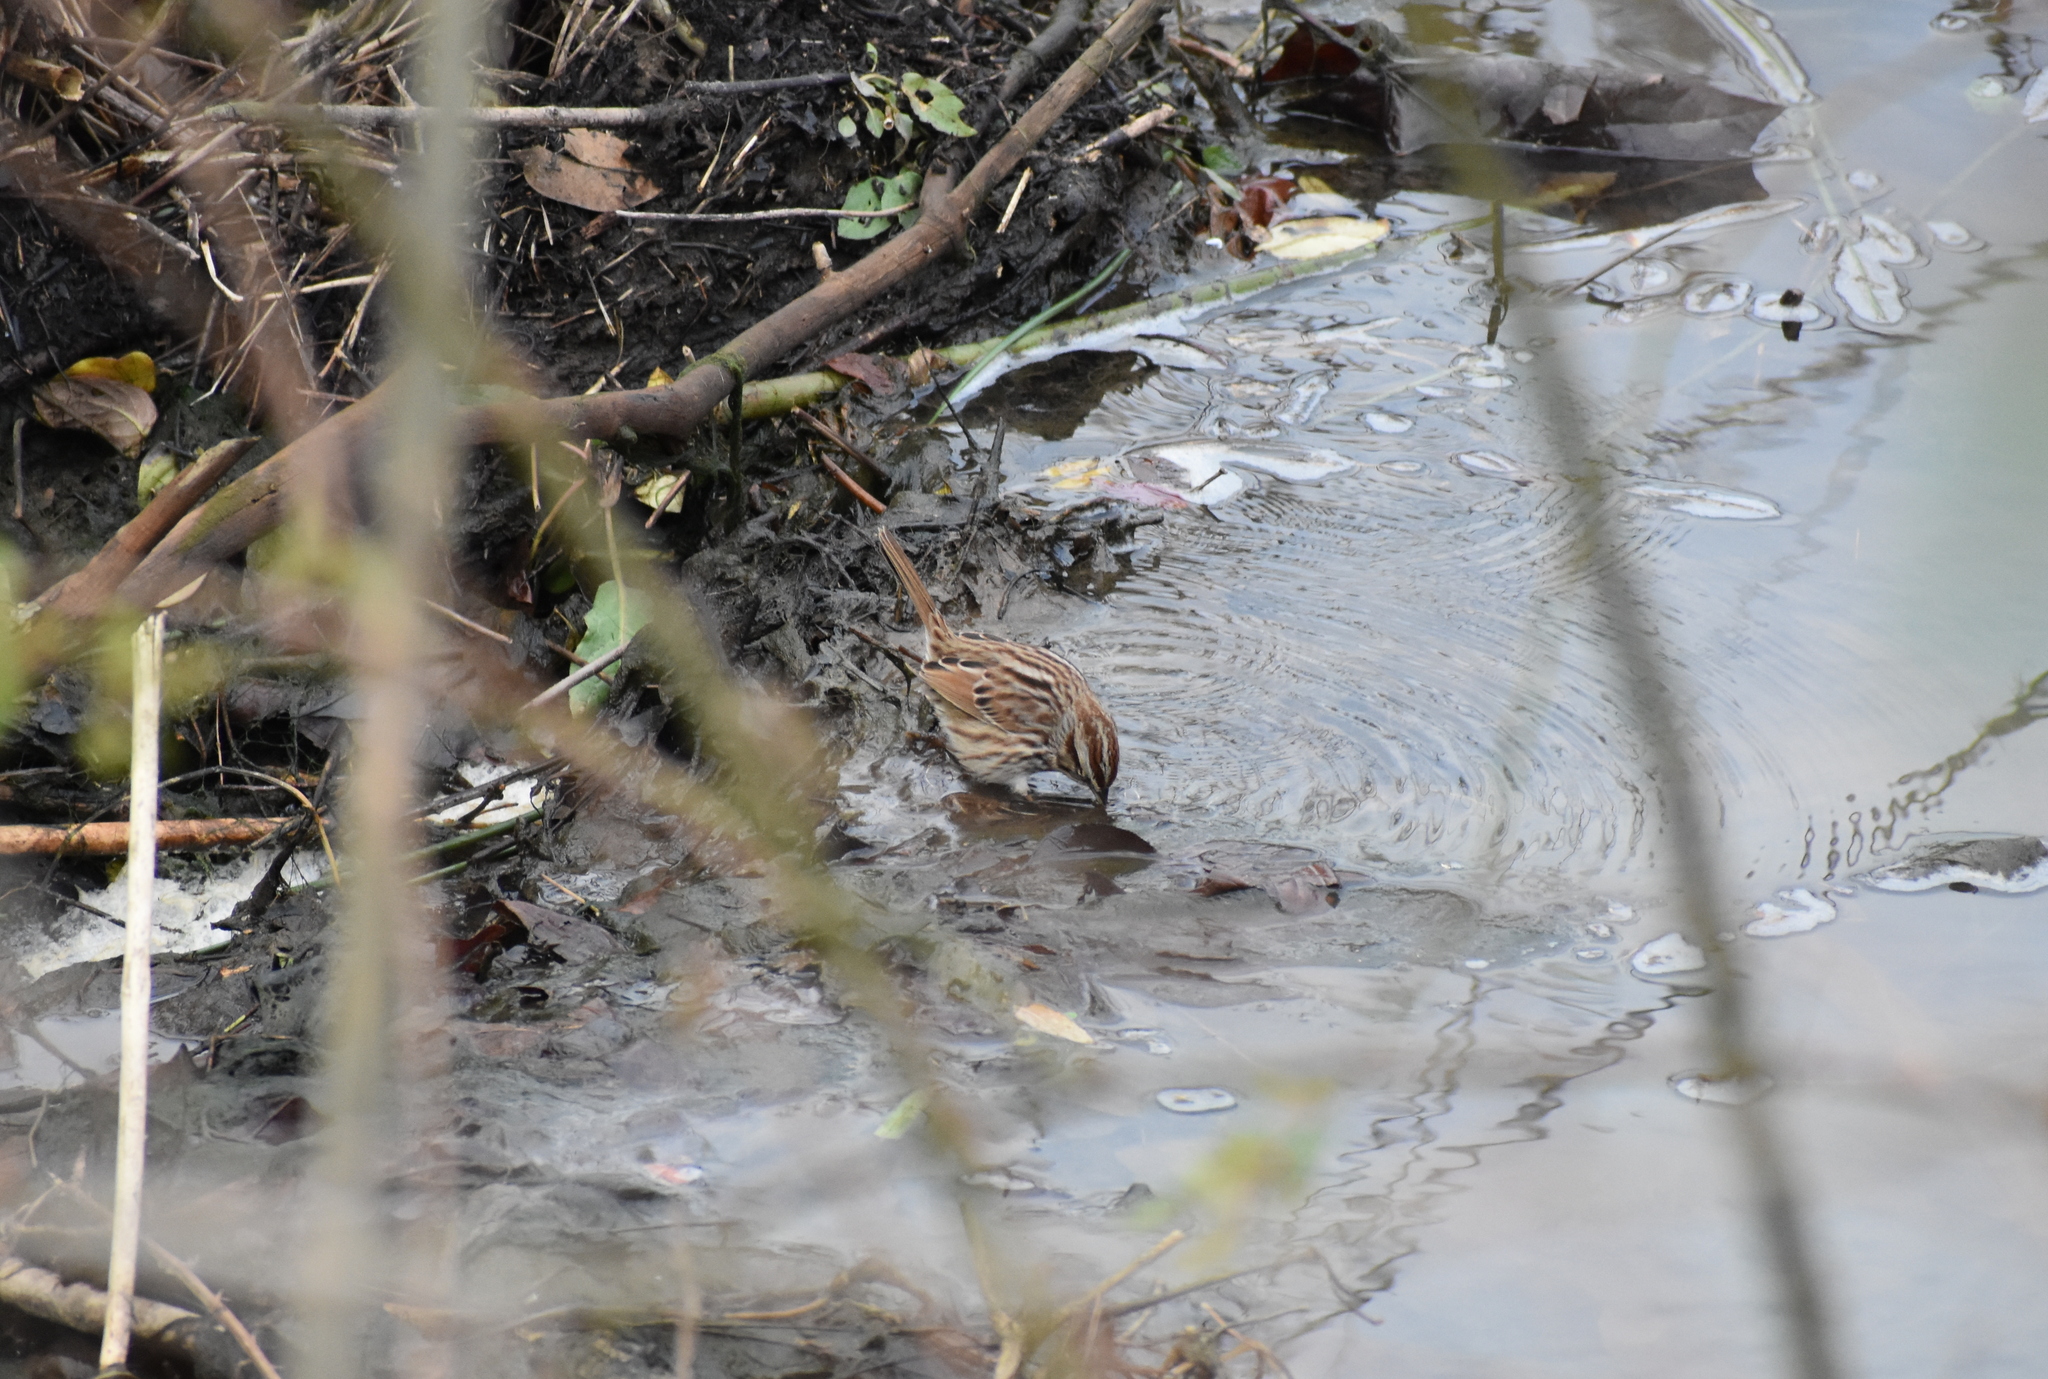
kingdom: Animalia
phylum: Chordata
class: Aves
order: Passeriformes
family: Passerellidae
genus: Melospiza
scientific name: Melospiza melodia
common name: Song sparrow
